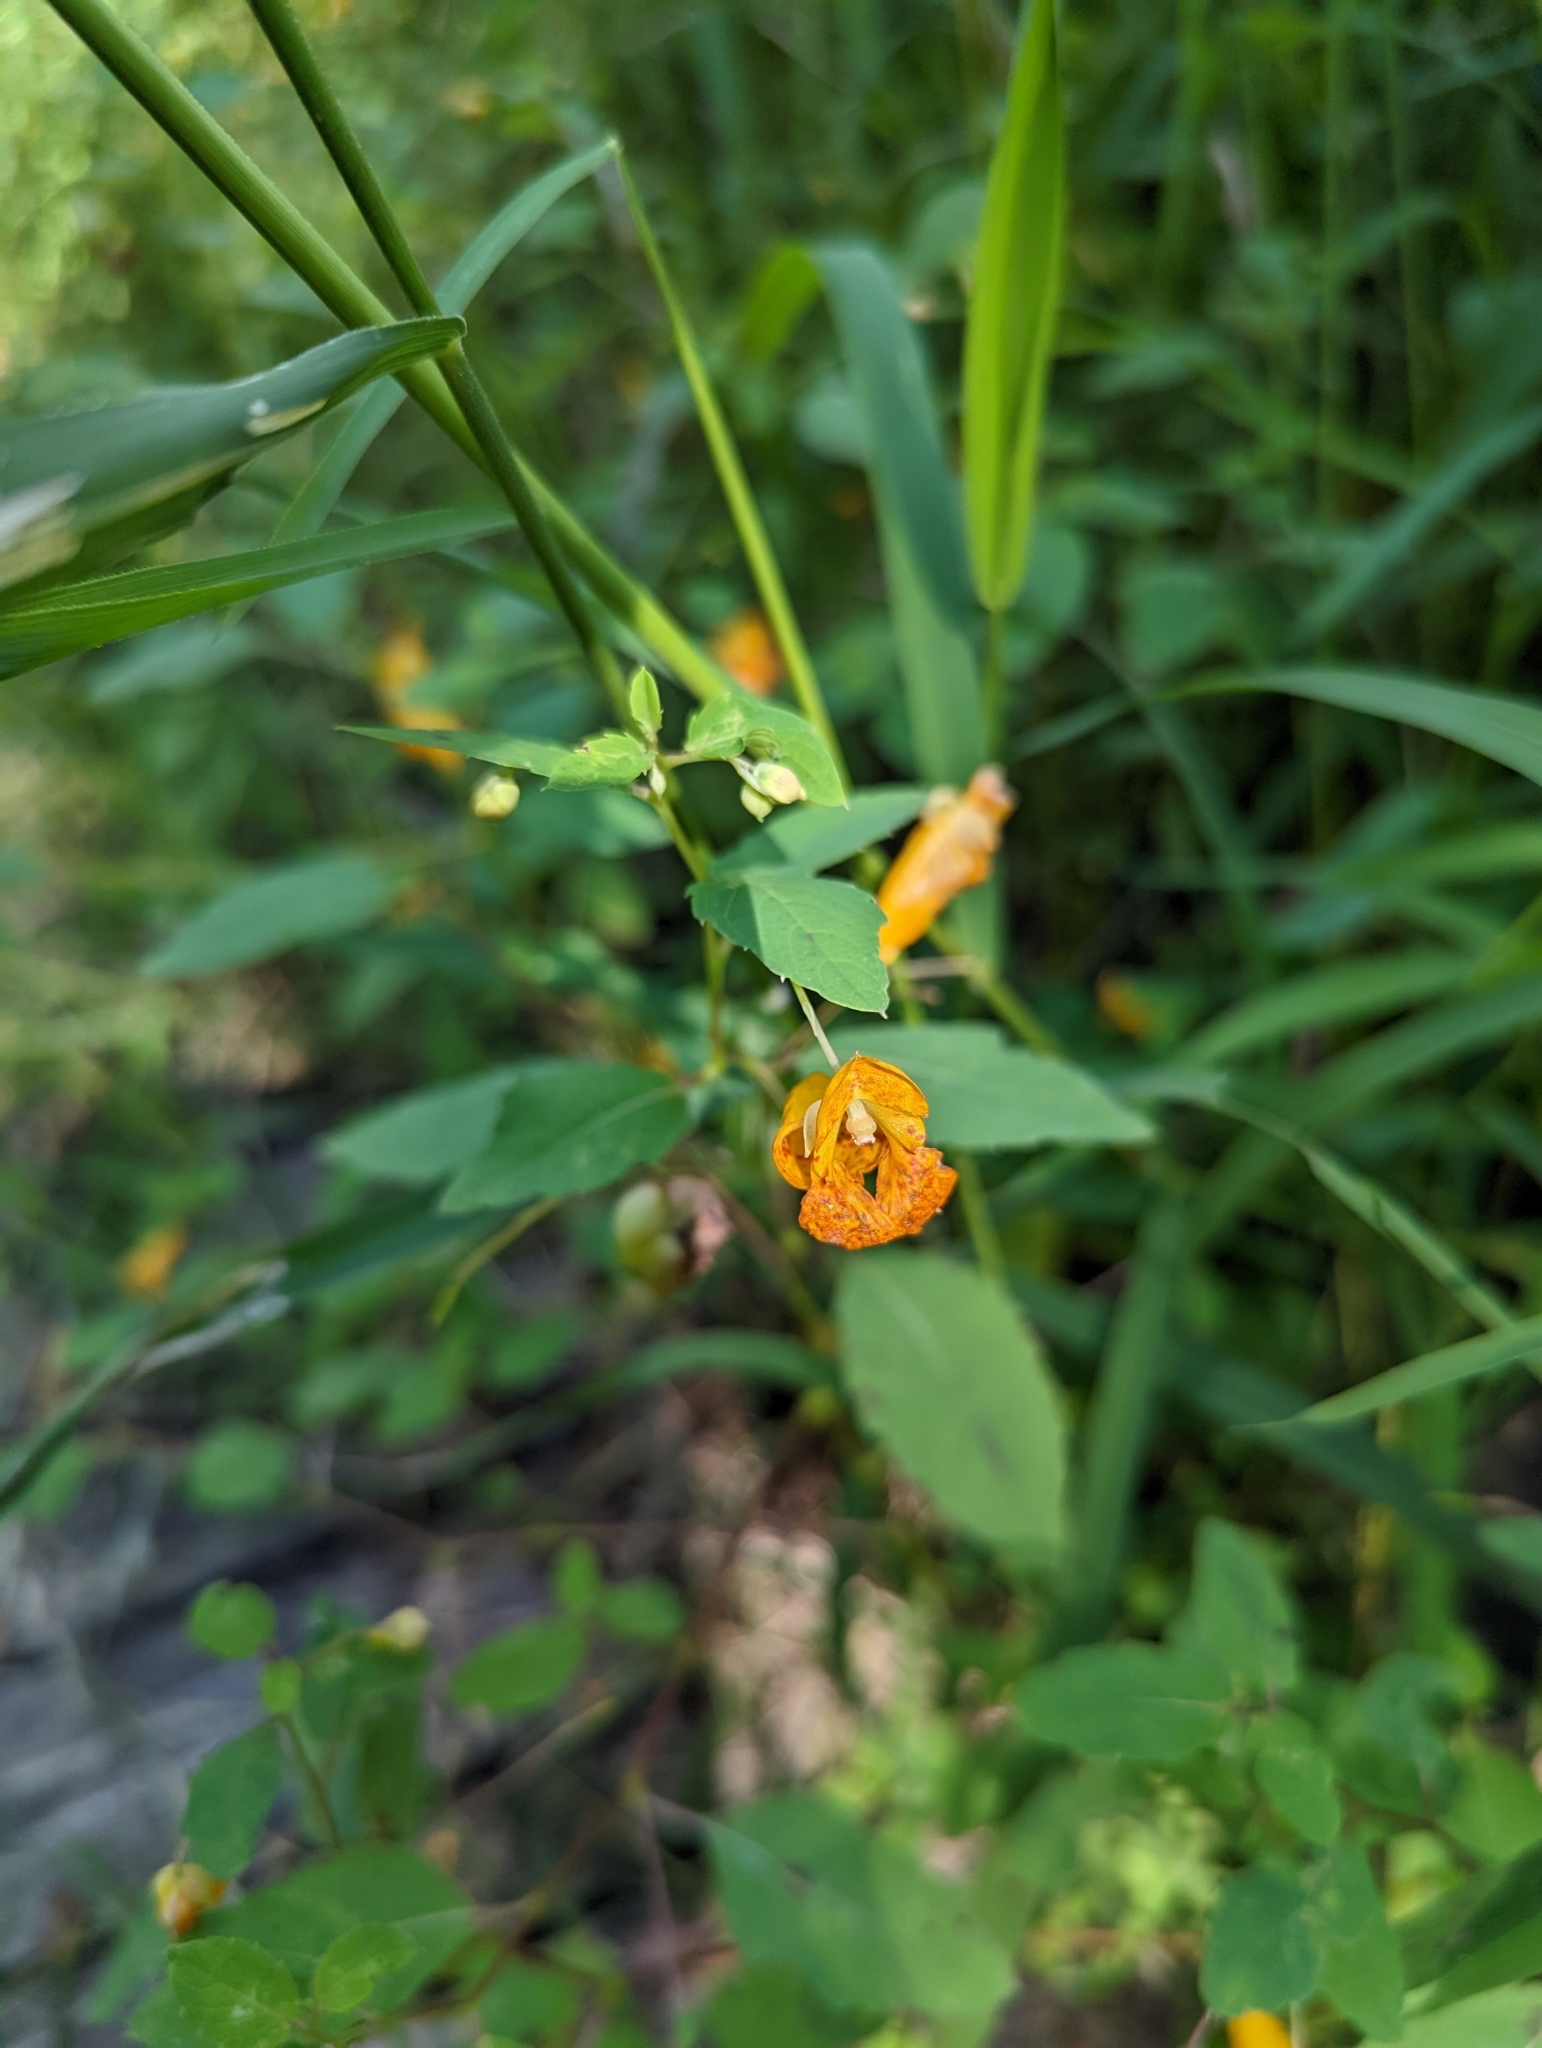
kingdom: Plantae
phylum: Tracheophyta
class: Magnoliopsida
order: Ericales
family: Balsaminaceae
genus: Impatiens
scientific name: Impatiens capensis
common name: Orange balsam
